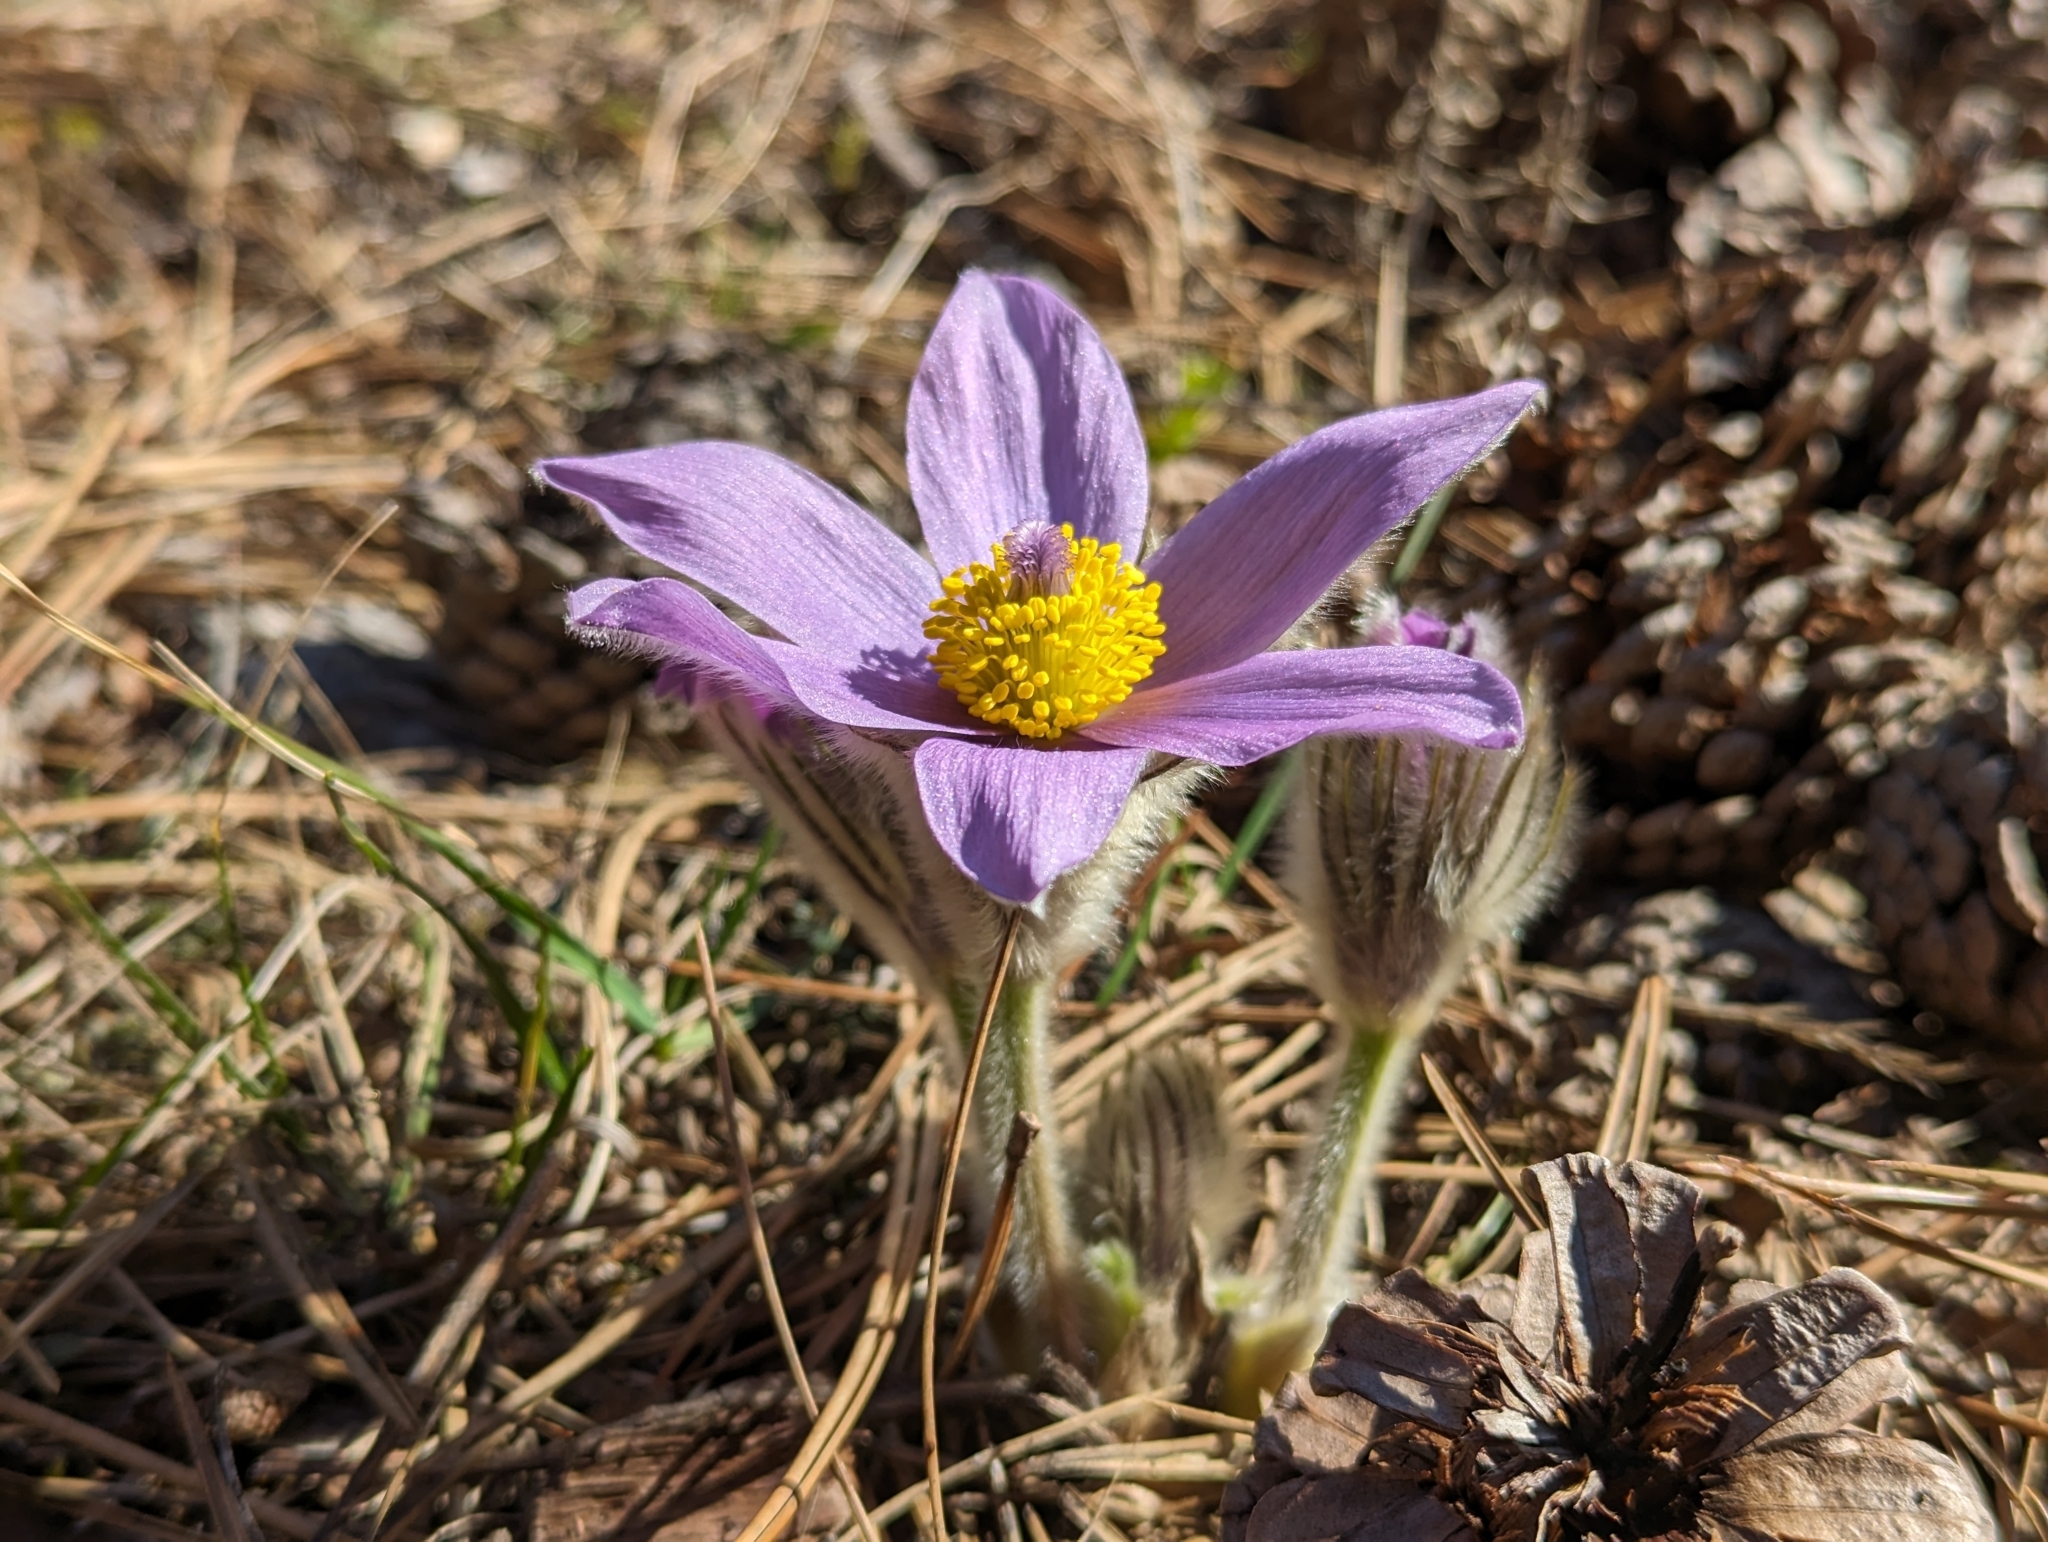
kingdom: Plantae
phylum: Tracheophyta
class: Magnoliopsida
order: Ranunculales
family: Ranunculaceae
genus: Pulsatilla
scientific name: Pulsatilla grandis
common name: Greater pasque flower
